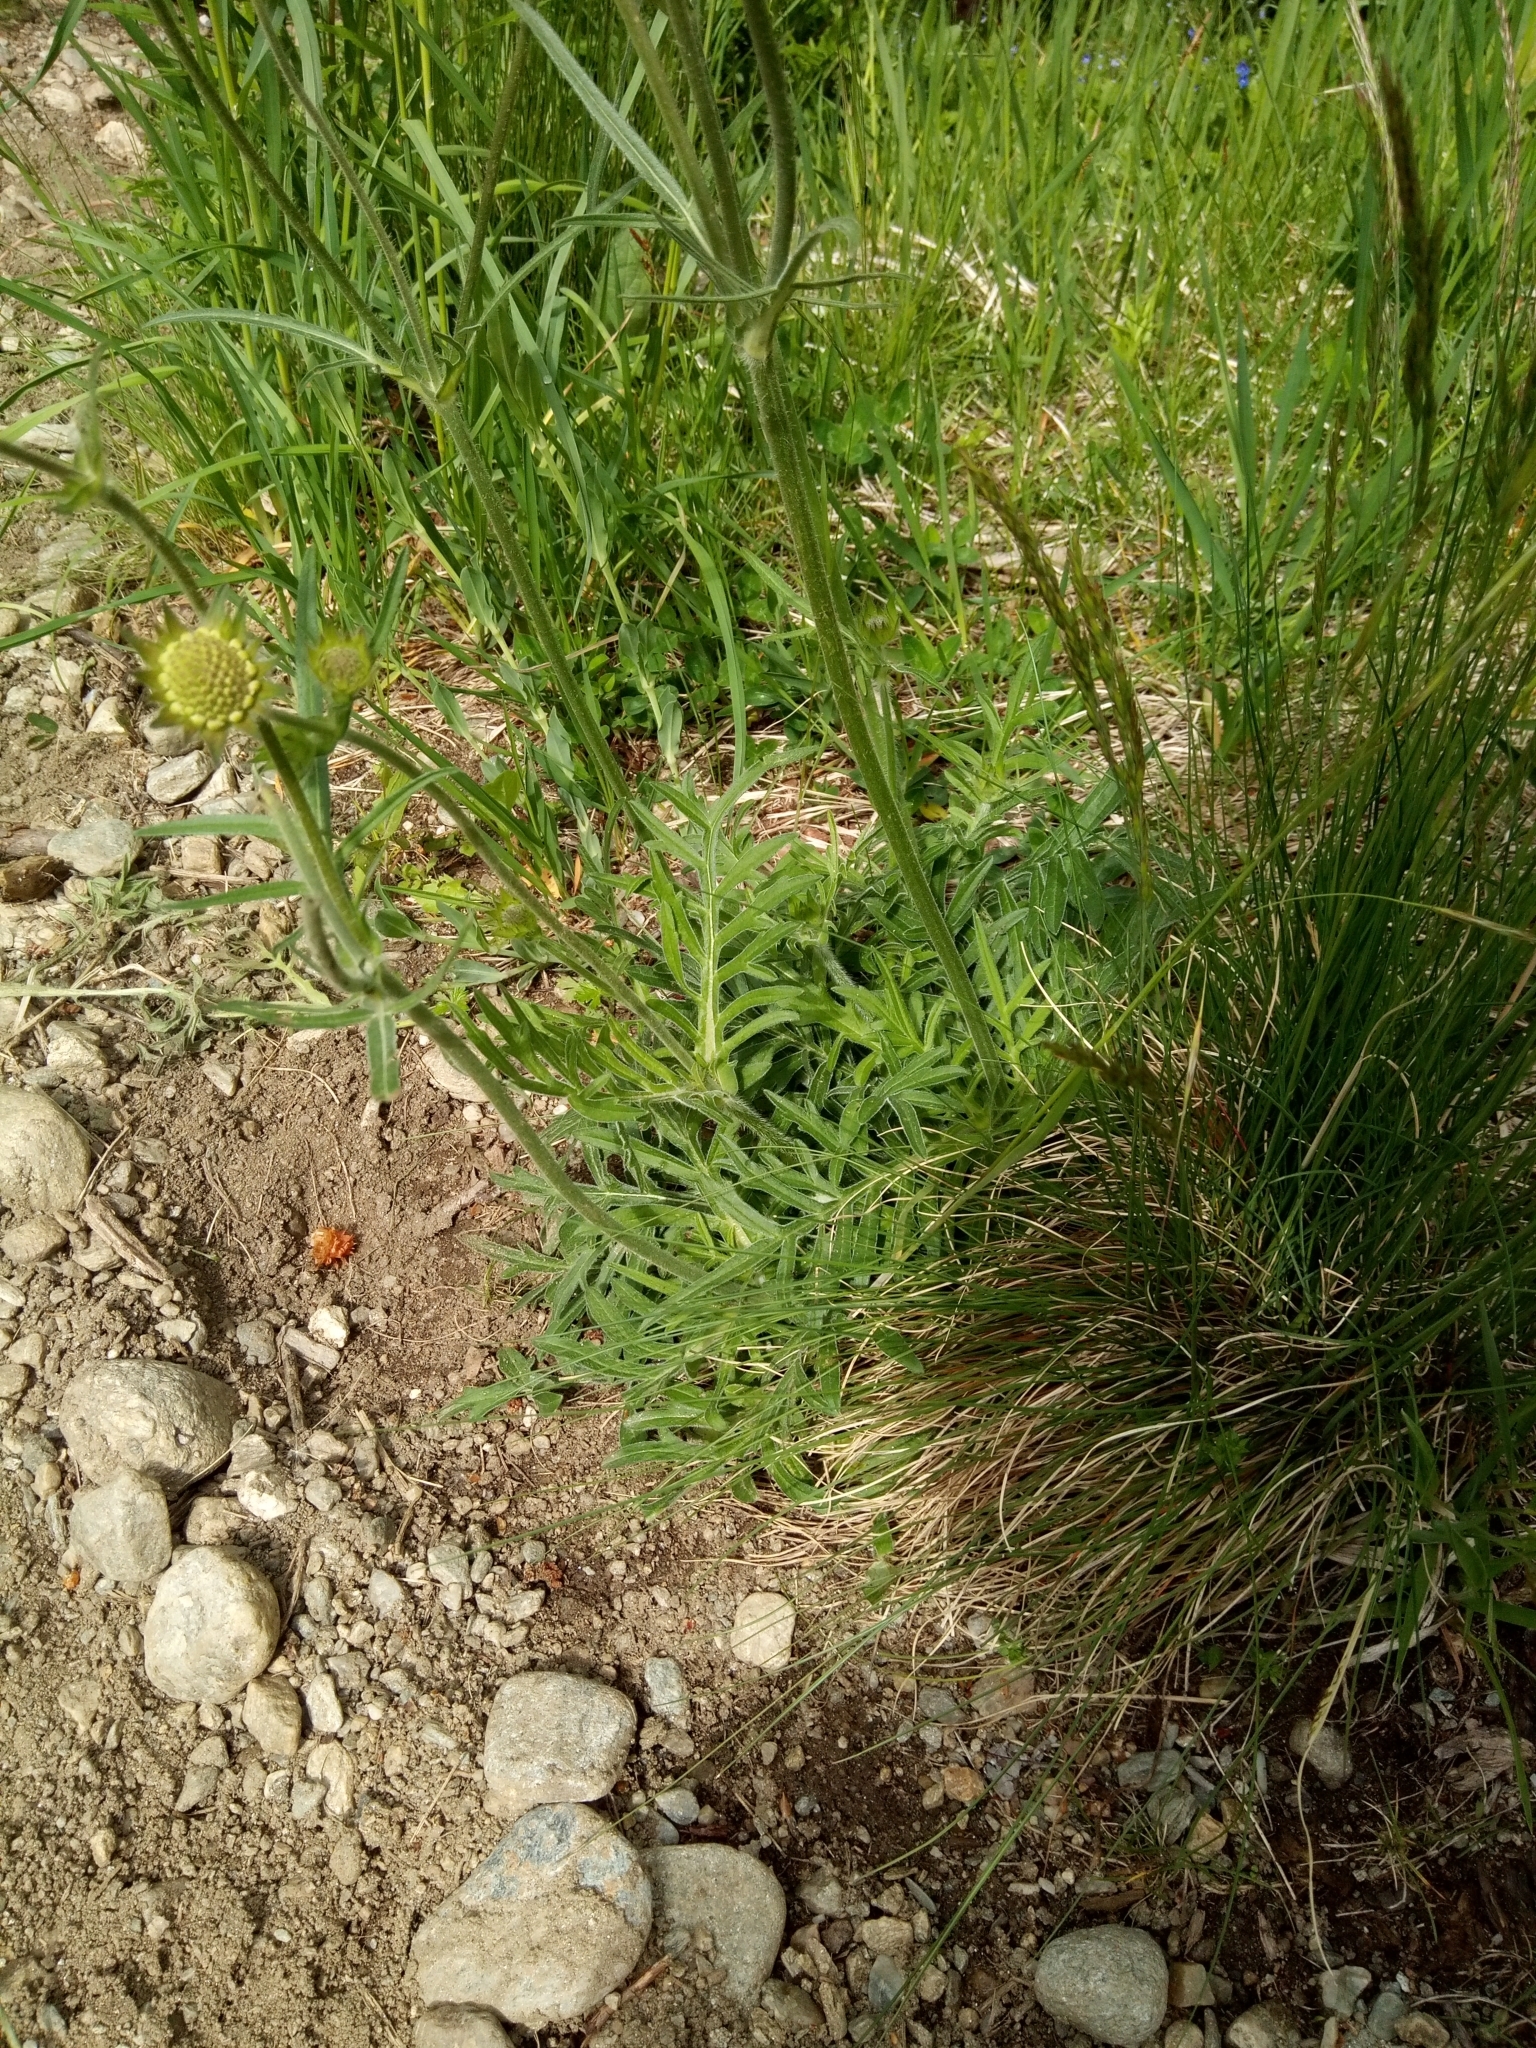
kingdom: Plantae
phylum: Tracheophyta
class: Magnoliopsida
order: Dipsacales
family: Caprifoliaceae
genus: Knautia
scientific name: Knautia arvensis
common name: Field scabiosa
